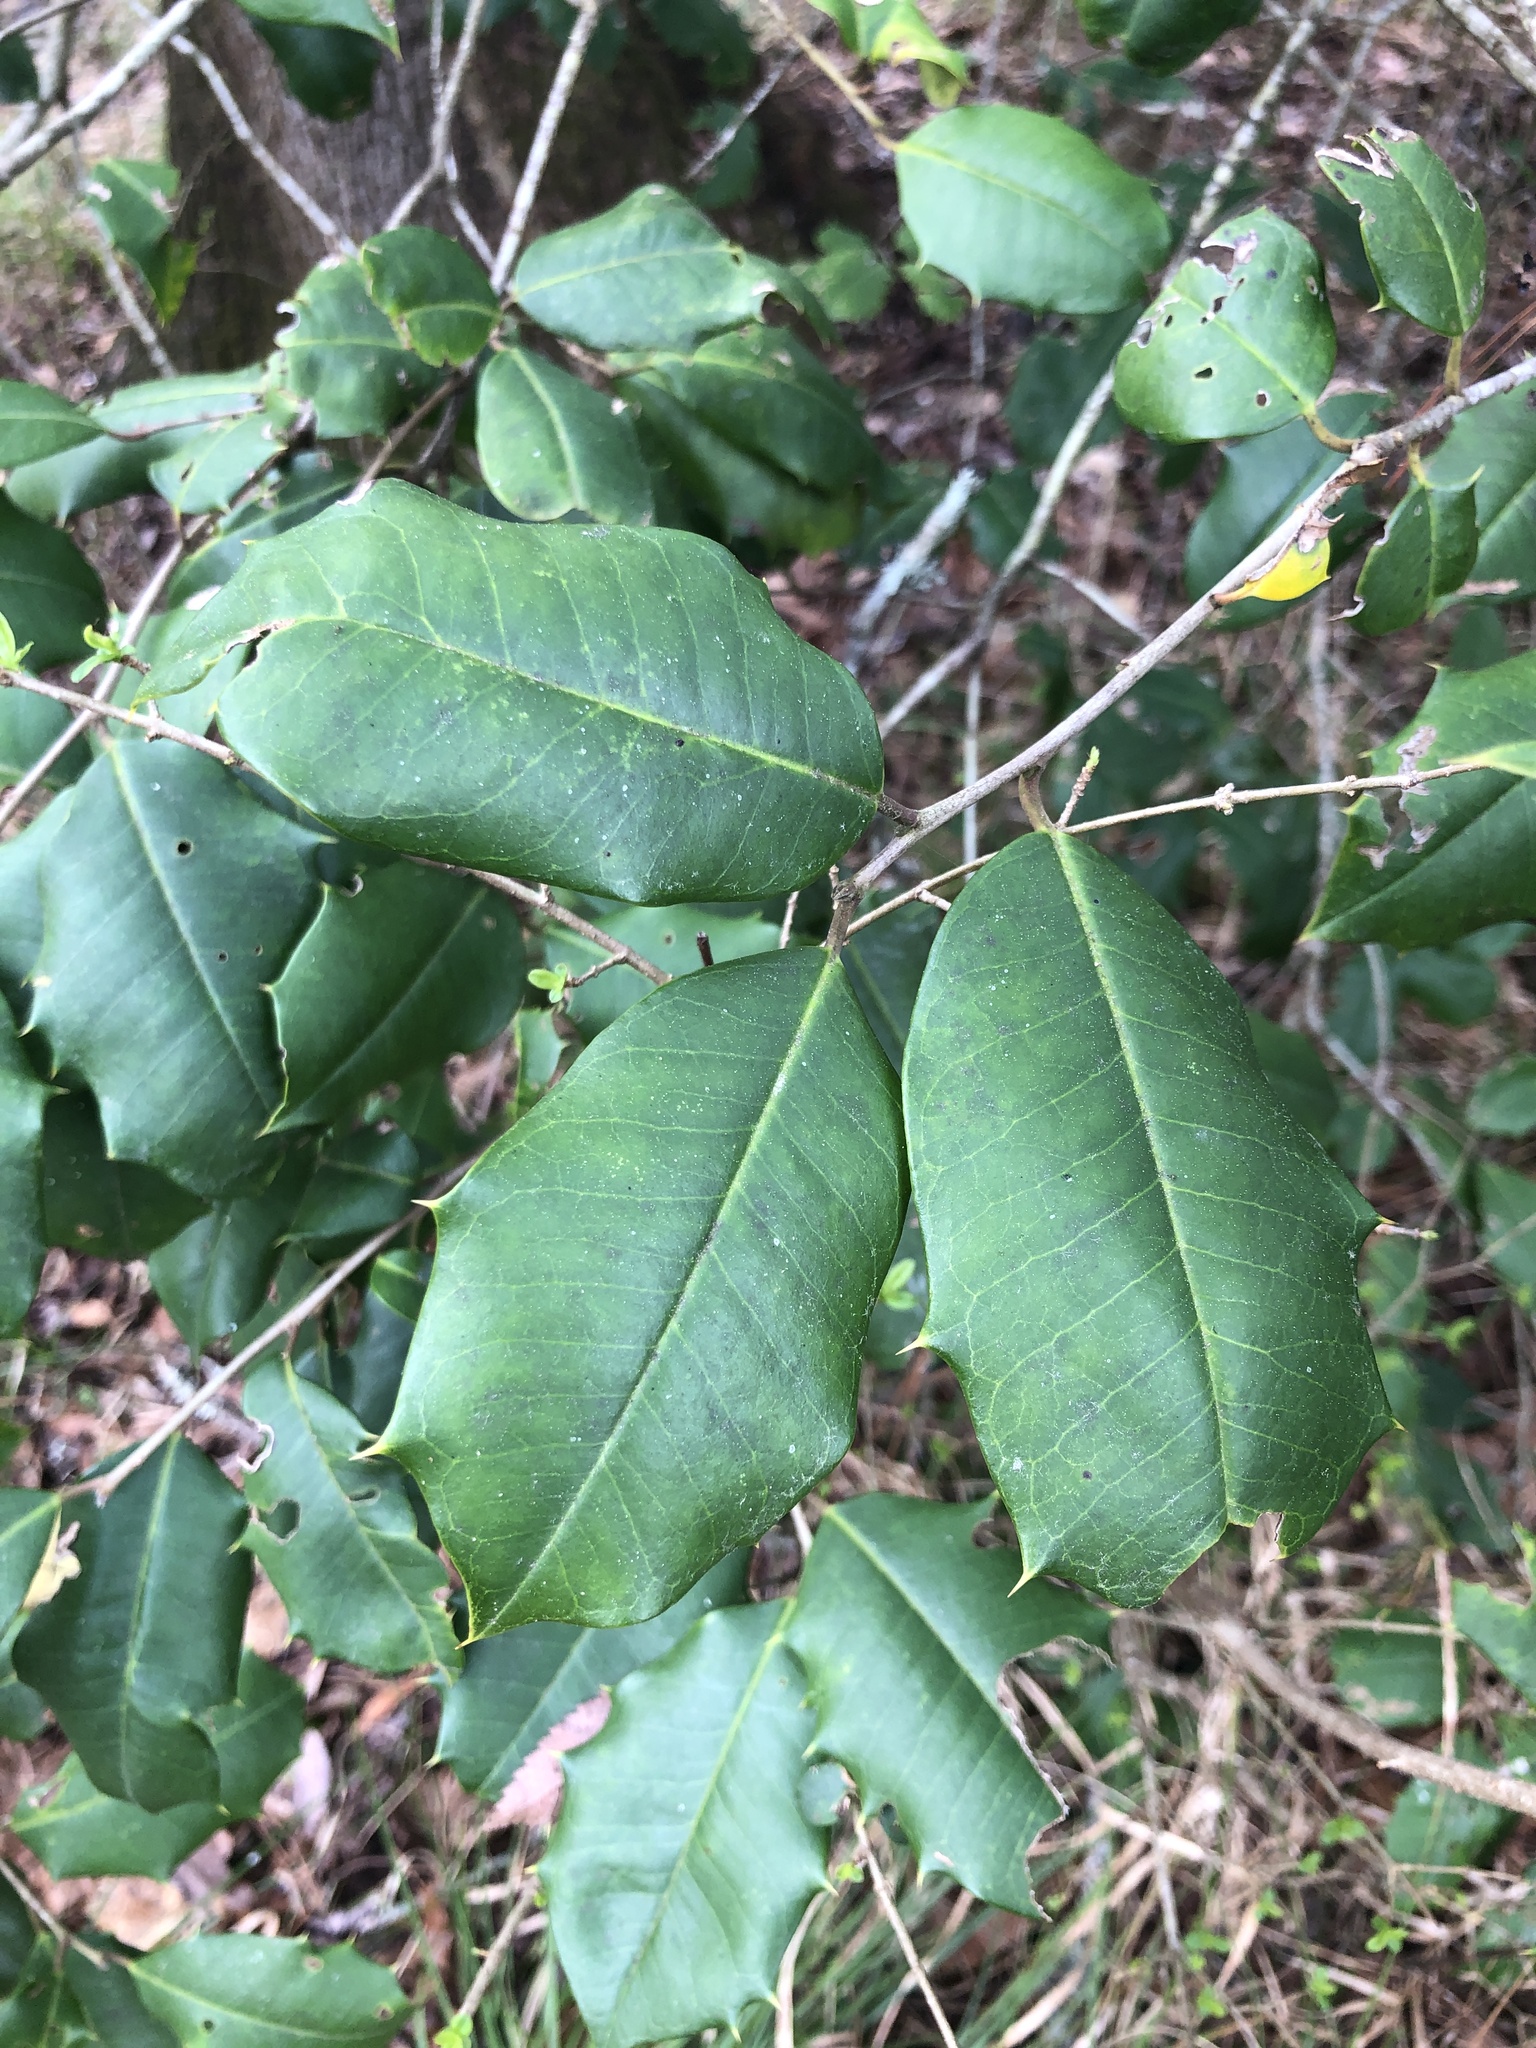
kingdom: Plantae
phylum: Tracheophyta
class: Magnoliopsida
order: Aquifoliales
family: Aquifoliaceae
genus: Ilex
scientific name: Ilex opaca
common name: American holly
